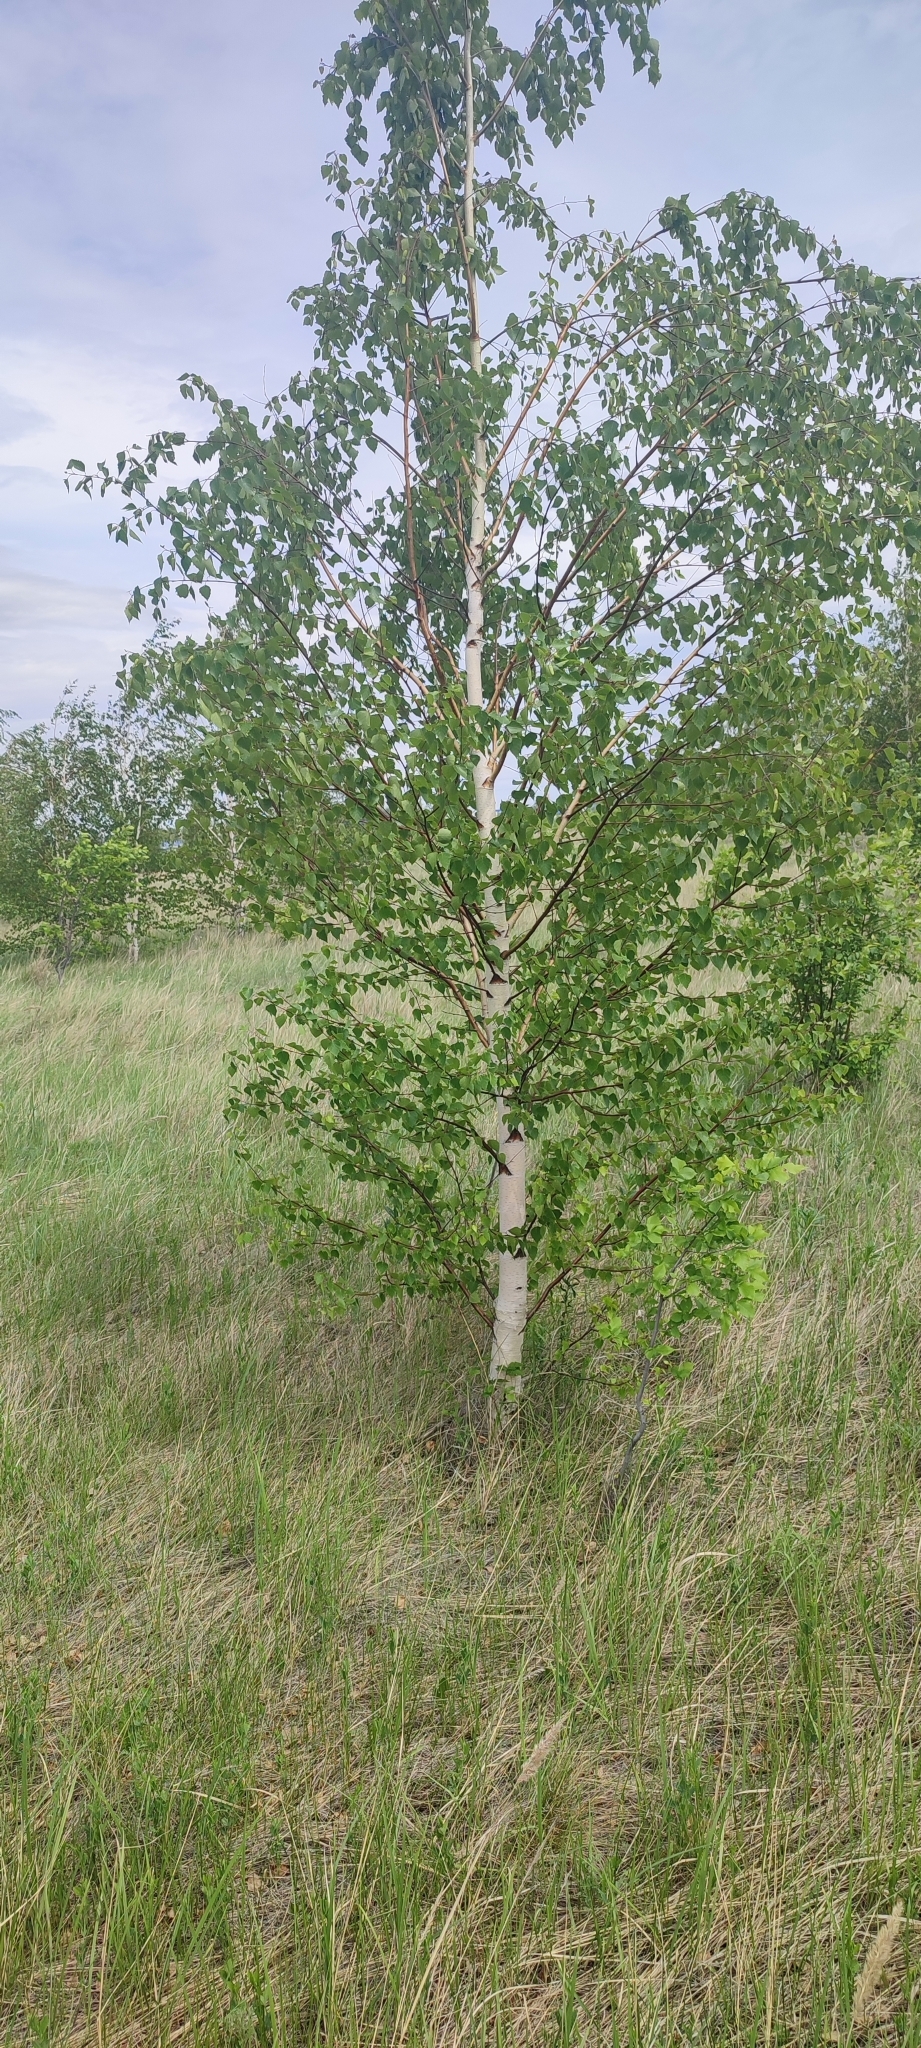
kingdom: Plantae
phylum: Tracheophyta
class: Magnoliopsida
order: Fagales
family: Betulaceae
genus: Betula
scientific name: Betula pendula
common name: Silver birch
